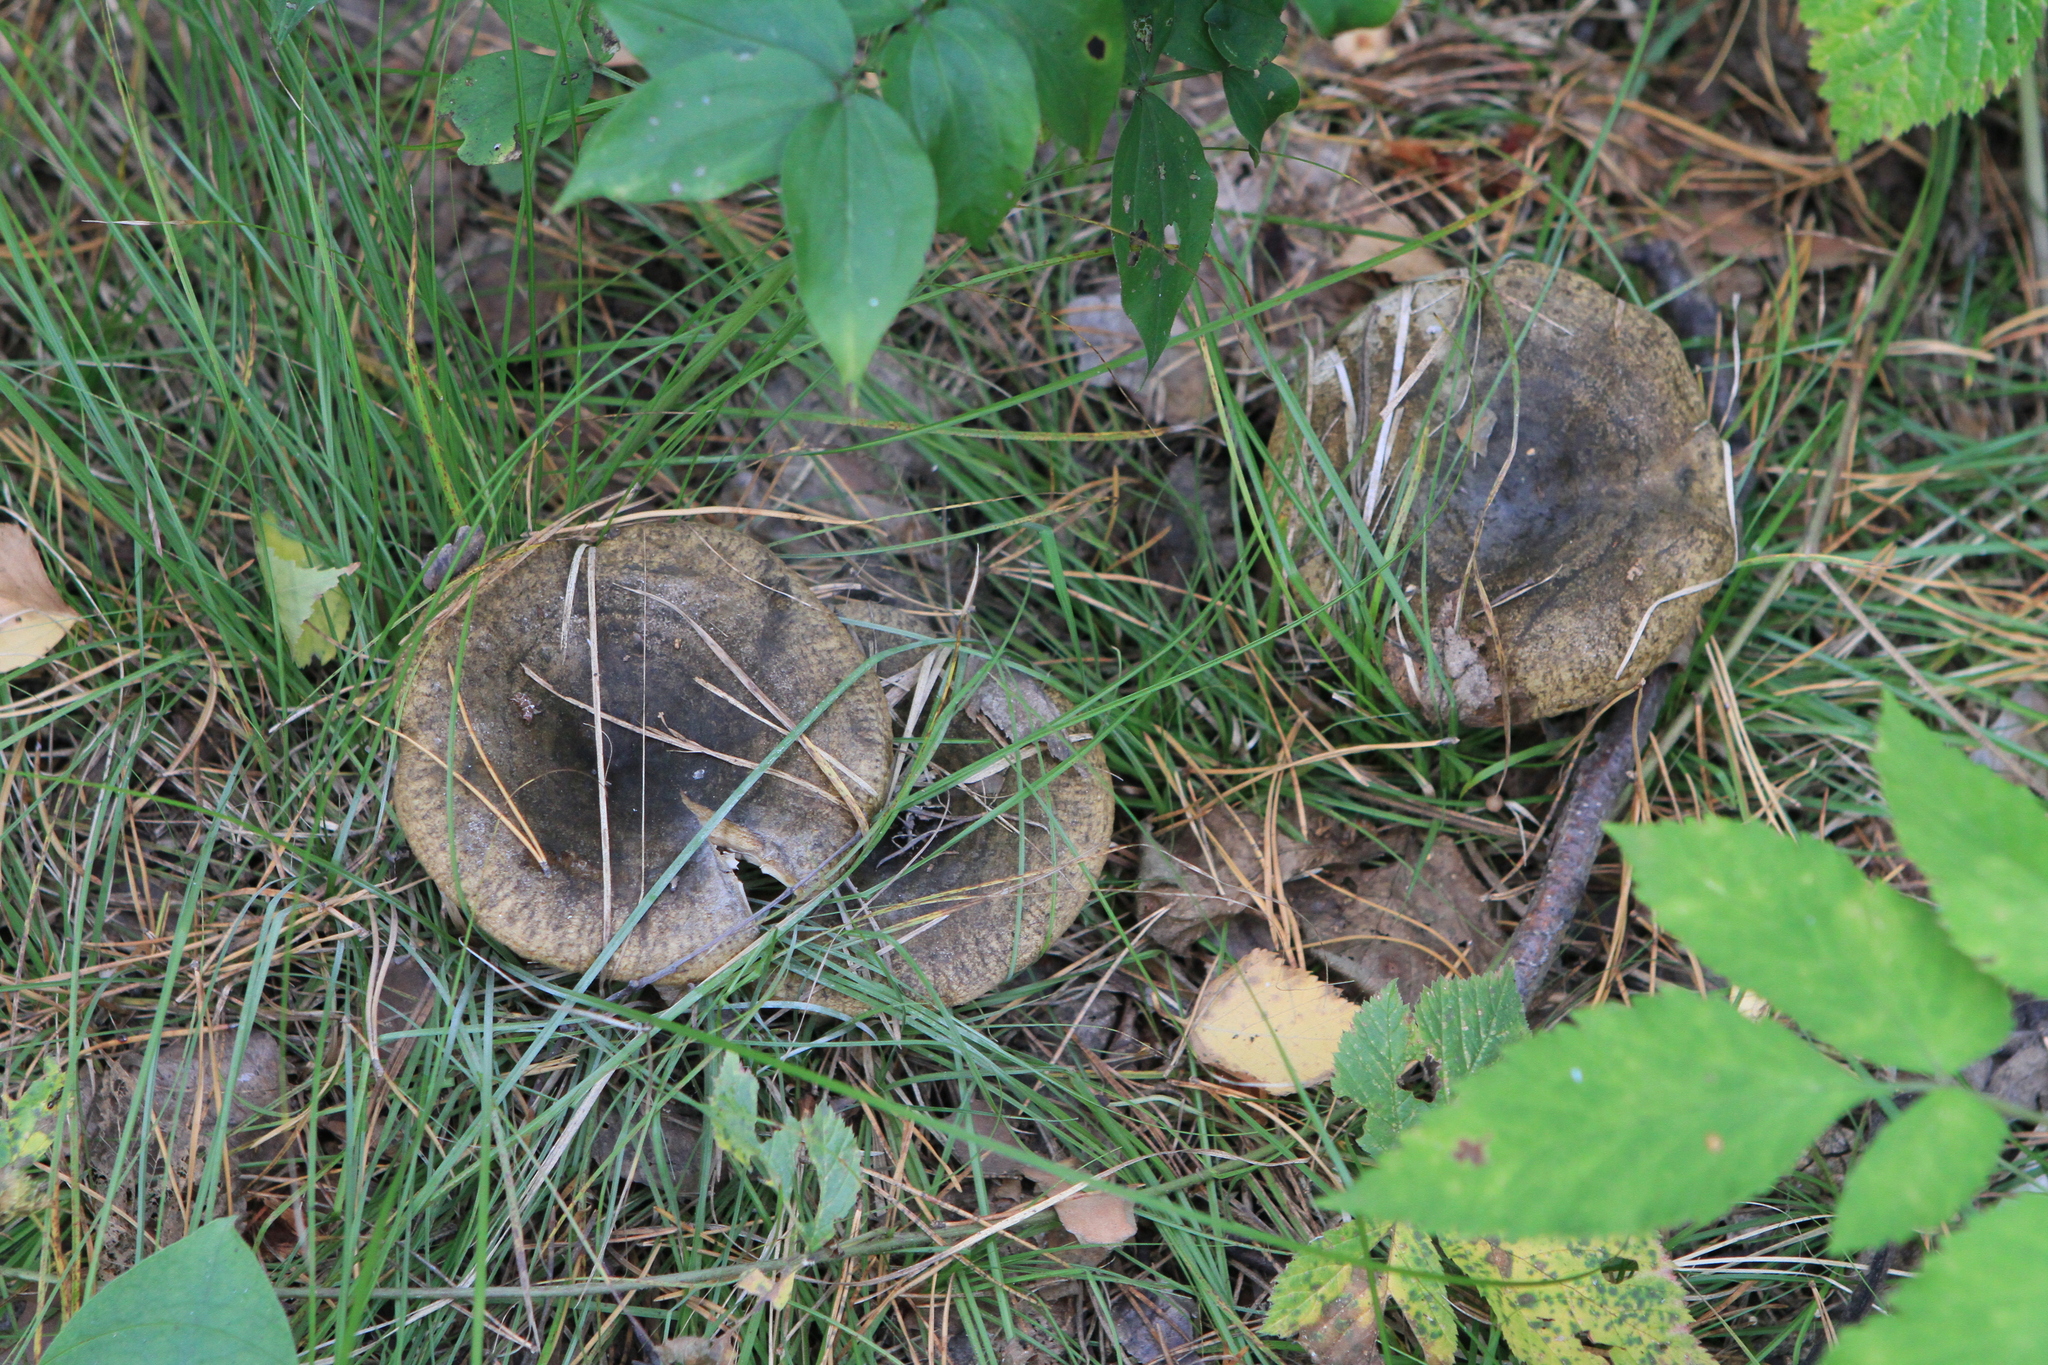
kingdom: Fungi
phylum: Basidiomycota
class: Agaricomycetes
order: Russulales
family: Russulaceae
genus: Lactarius
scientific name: Lactarius turpis
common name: Ugly milk-cap
